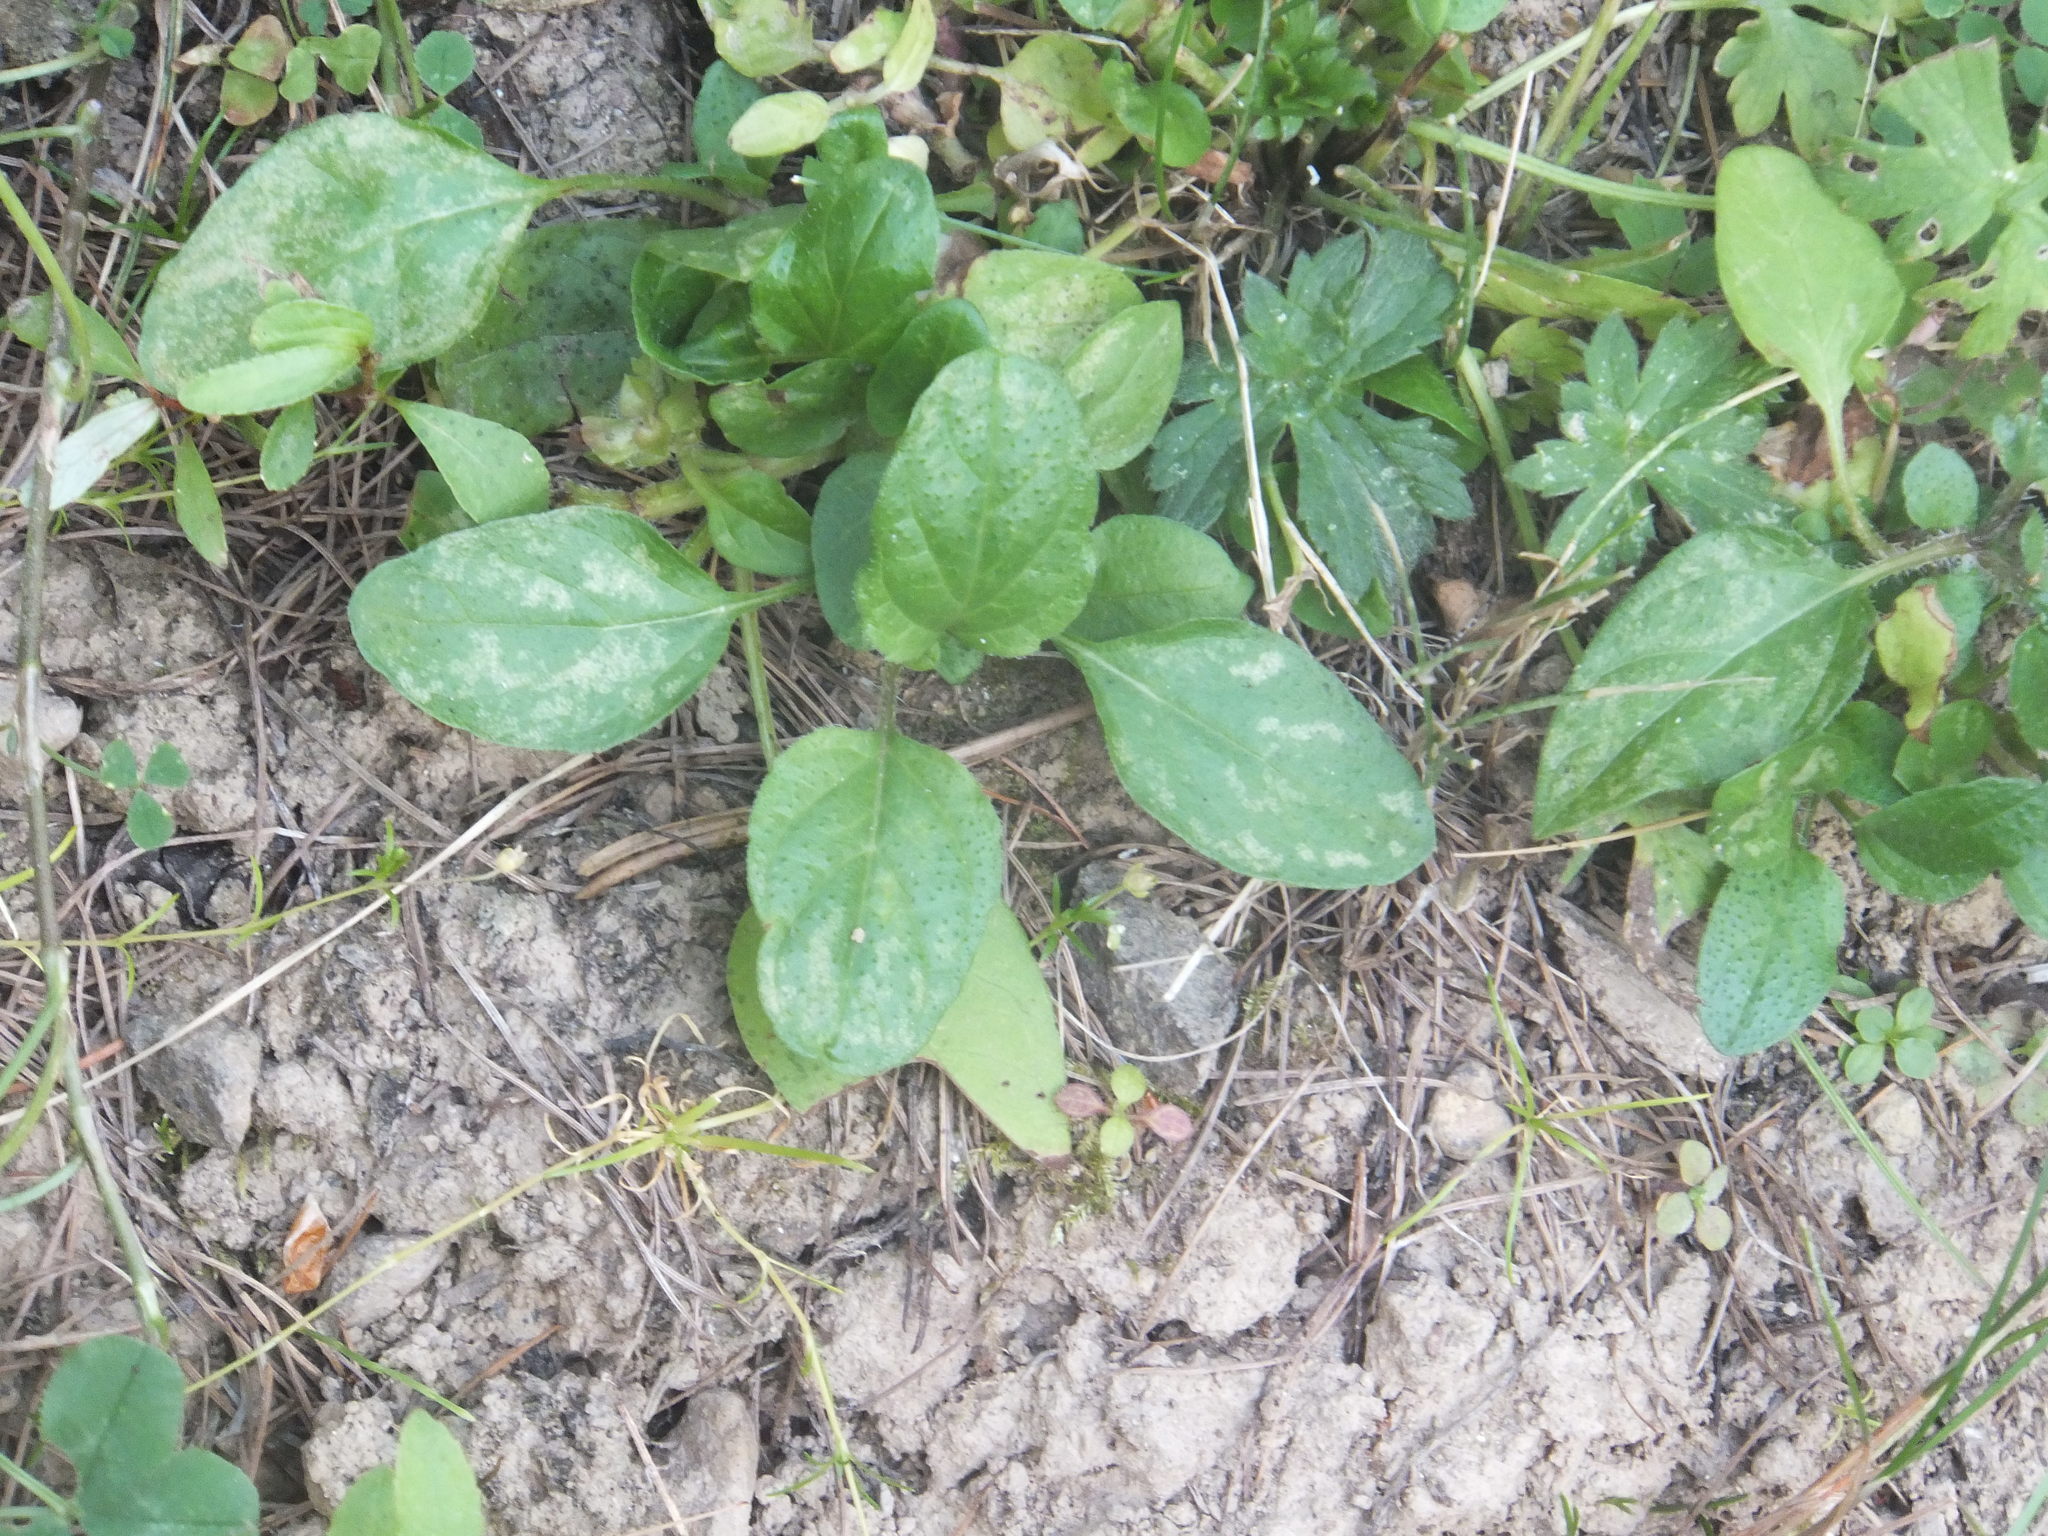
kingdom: Plantae
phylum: Tracheophyta
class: Magnoliopsida
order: Lamiales
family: Lamiaceae
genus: Prunella
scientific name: Prunella vulgaris
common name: Heal-all
